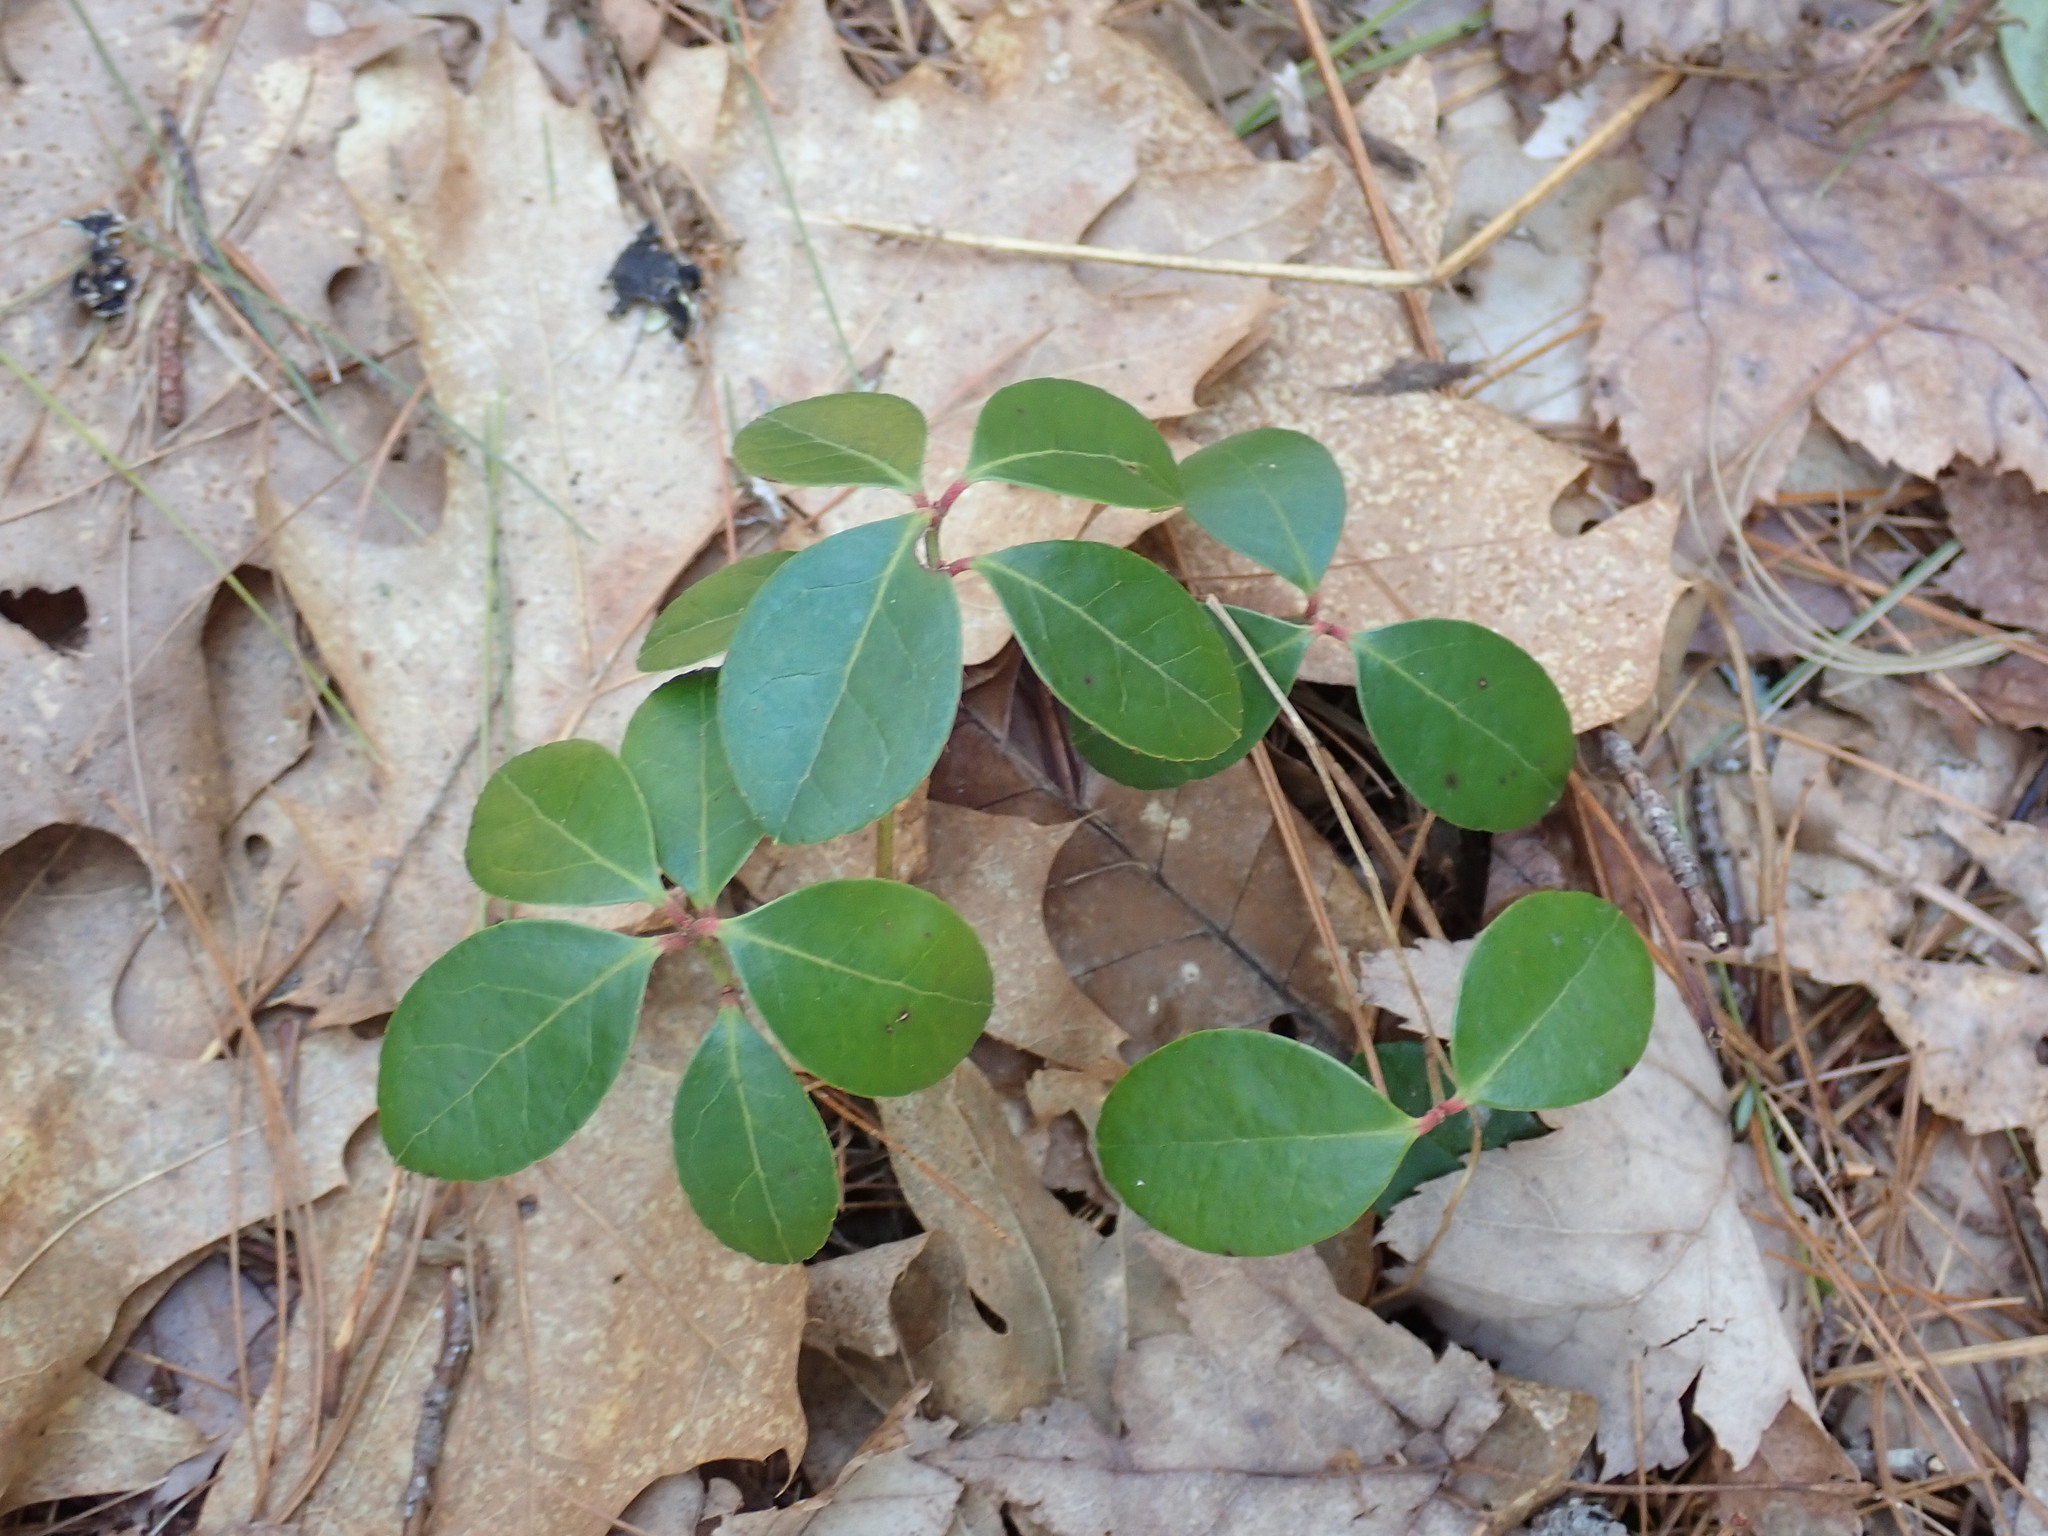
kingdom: Plantae
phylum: Tracheophyta
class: Magnoliopsida
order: Ericales
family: Ericaceae
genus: Gaultheria
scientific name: Gaultheria procumbens
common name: Checkerberry
